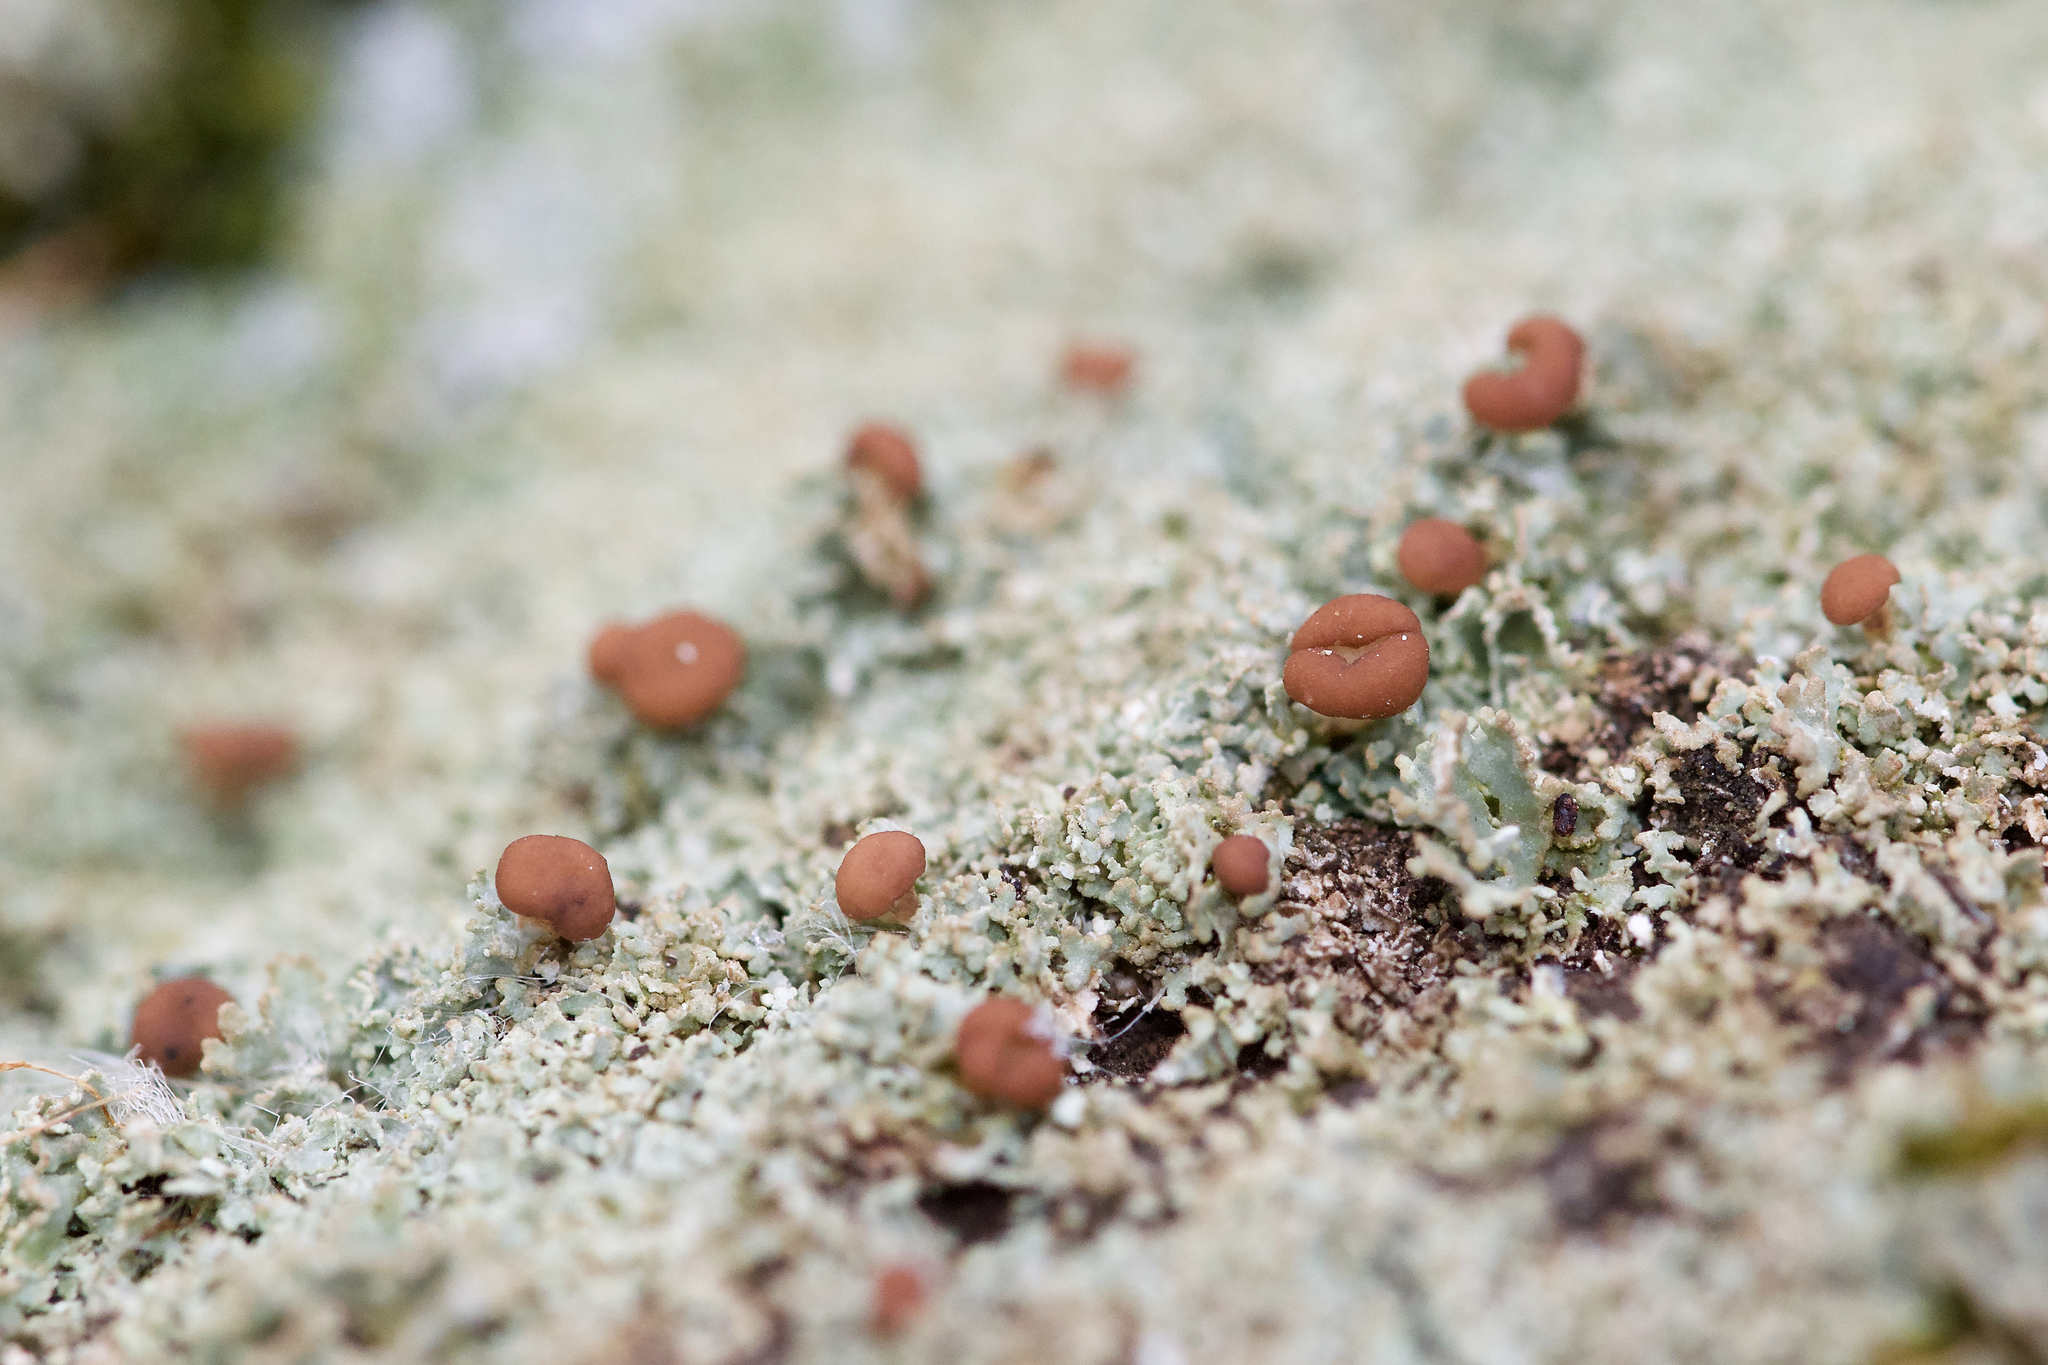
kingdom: Fungi
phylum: Ascomycota
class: Lecanoromycetes
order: Lecanorales
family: Cladoniaceae
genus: Cladonia
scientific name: Cladonia caespiticia
